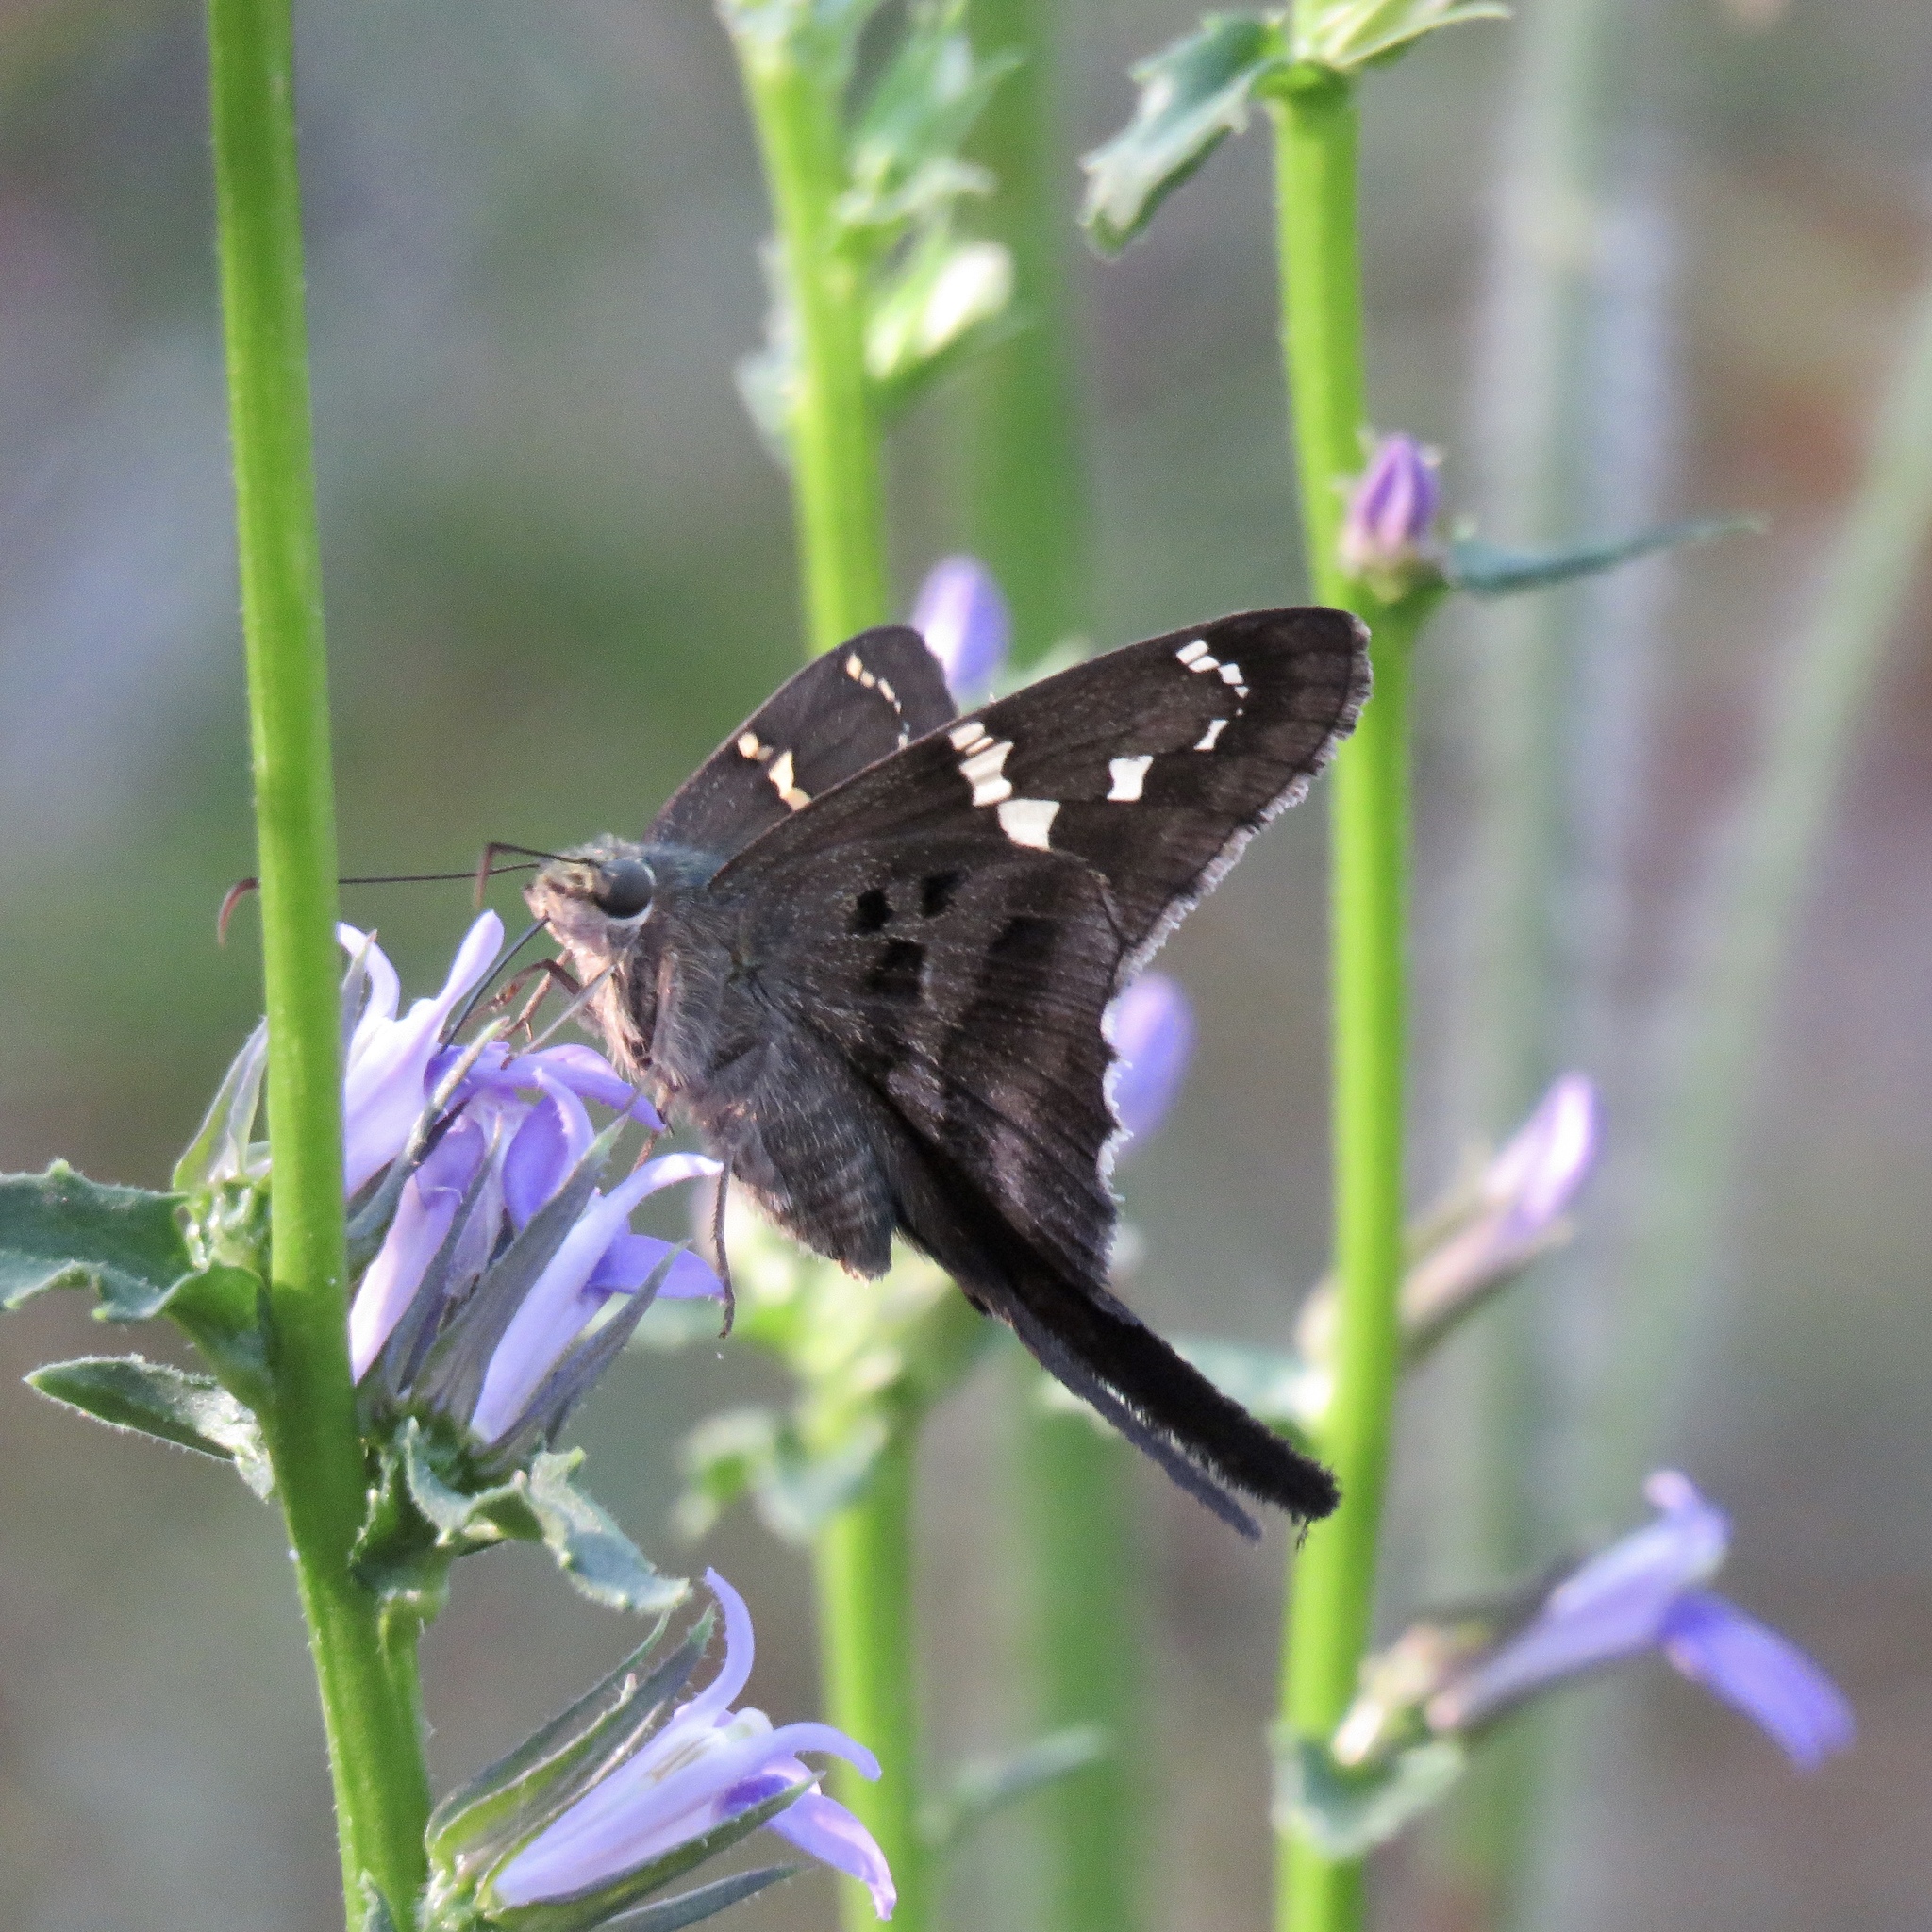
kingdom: Animalia
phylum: Arthropoda
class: Insecta
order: Lepidoptera
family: Hesperiidae
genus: Urbanus
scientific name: Urbanus proteus
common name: Long-tailed skipper
